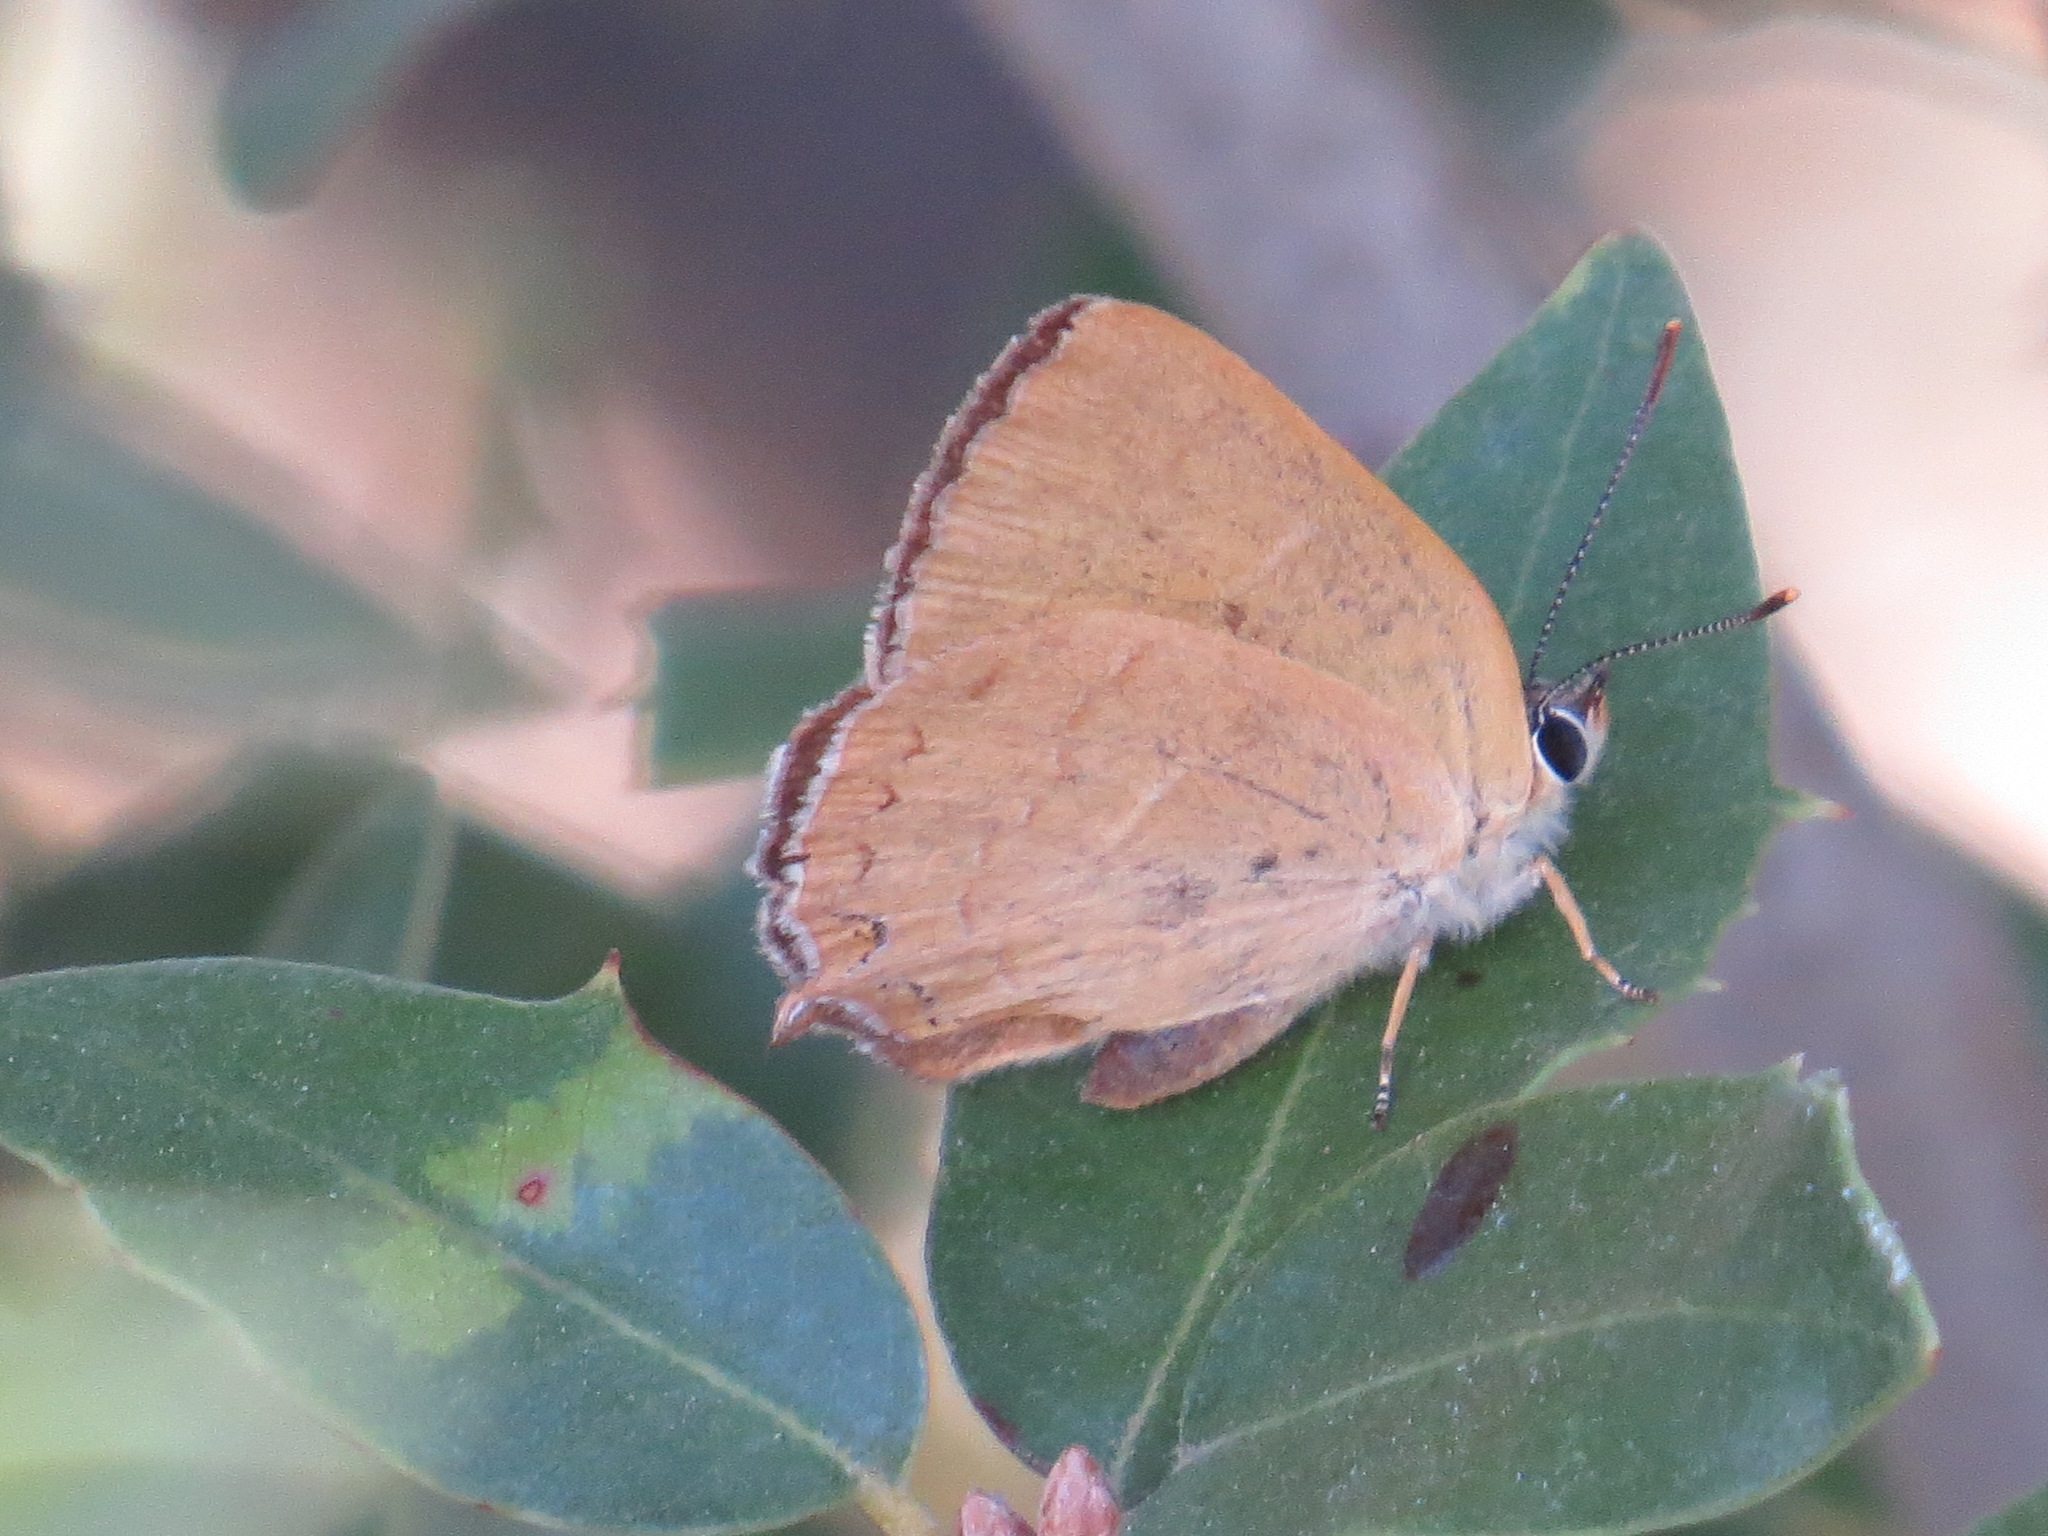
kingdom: Animalia
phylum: Arthropoda
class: Insecta
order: Lepidoptera
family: Lycaenidae
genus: Habrodais
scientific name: Habrodais grunus
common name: Golden hairstreak
